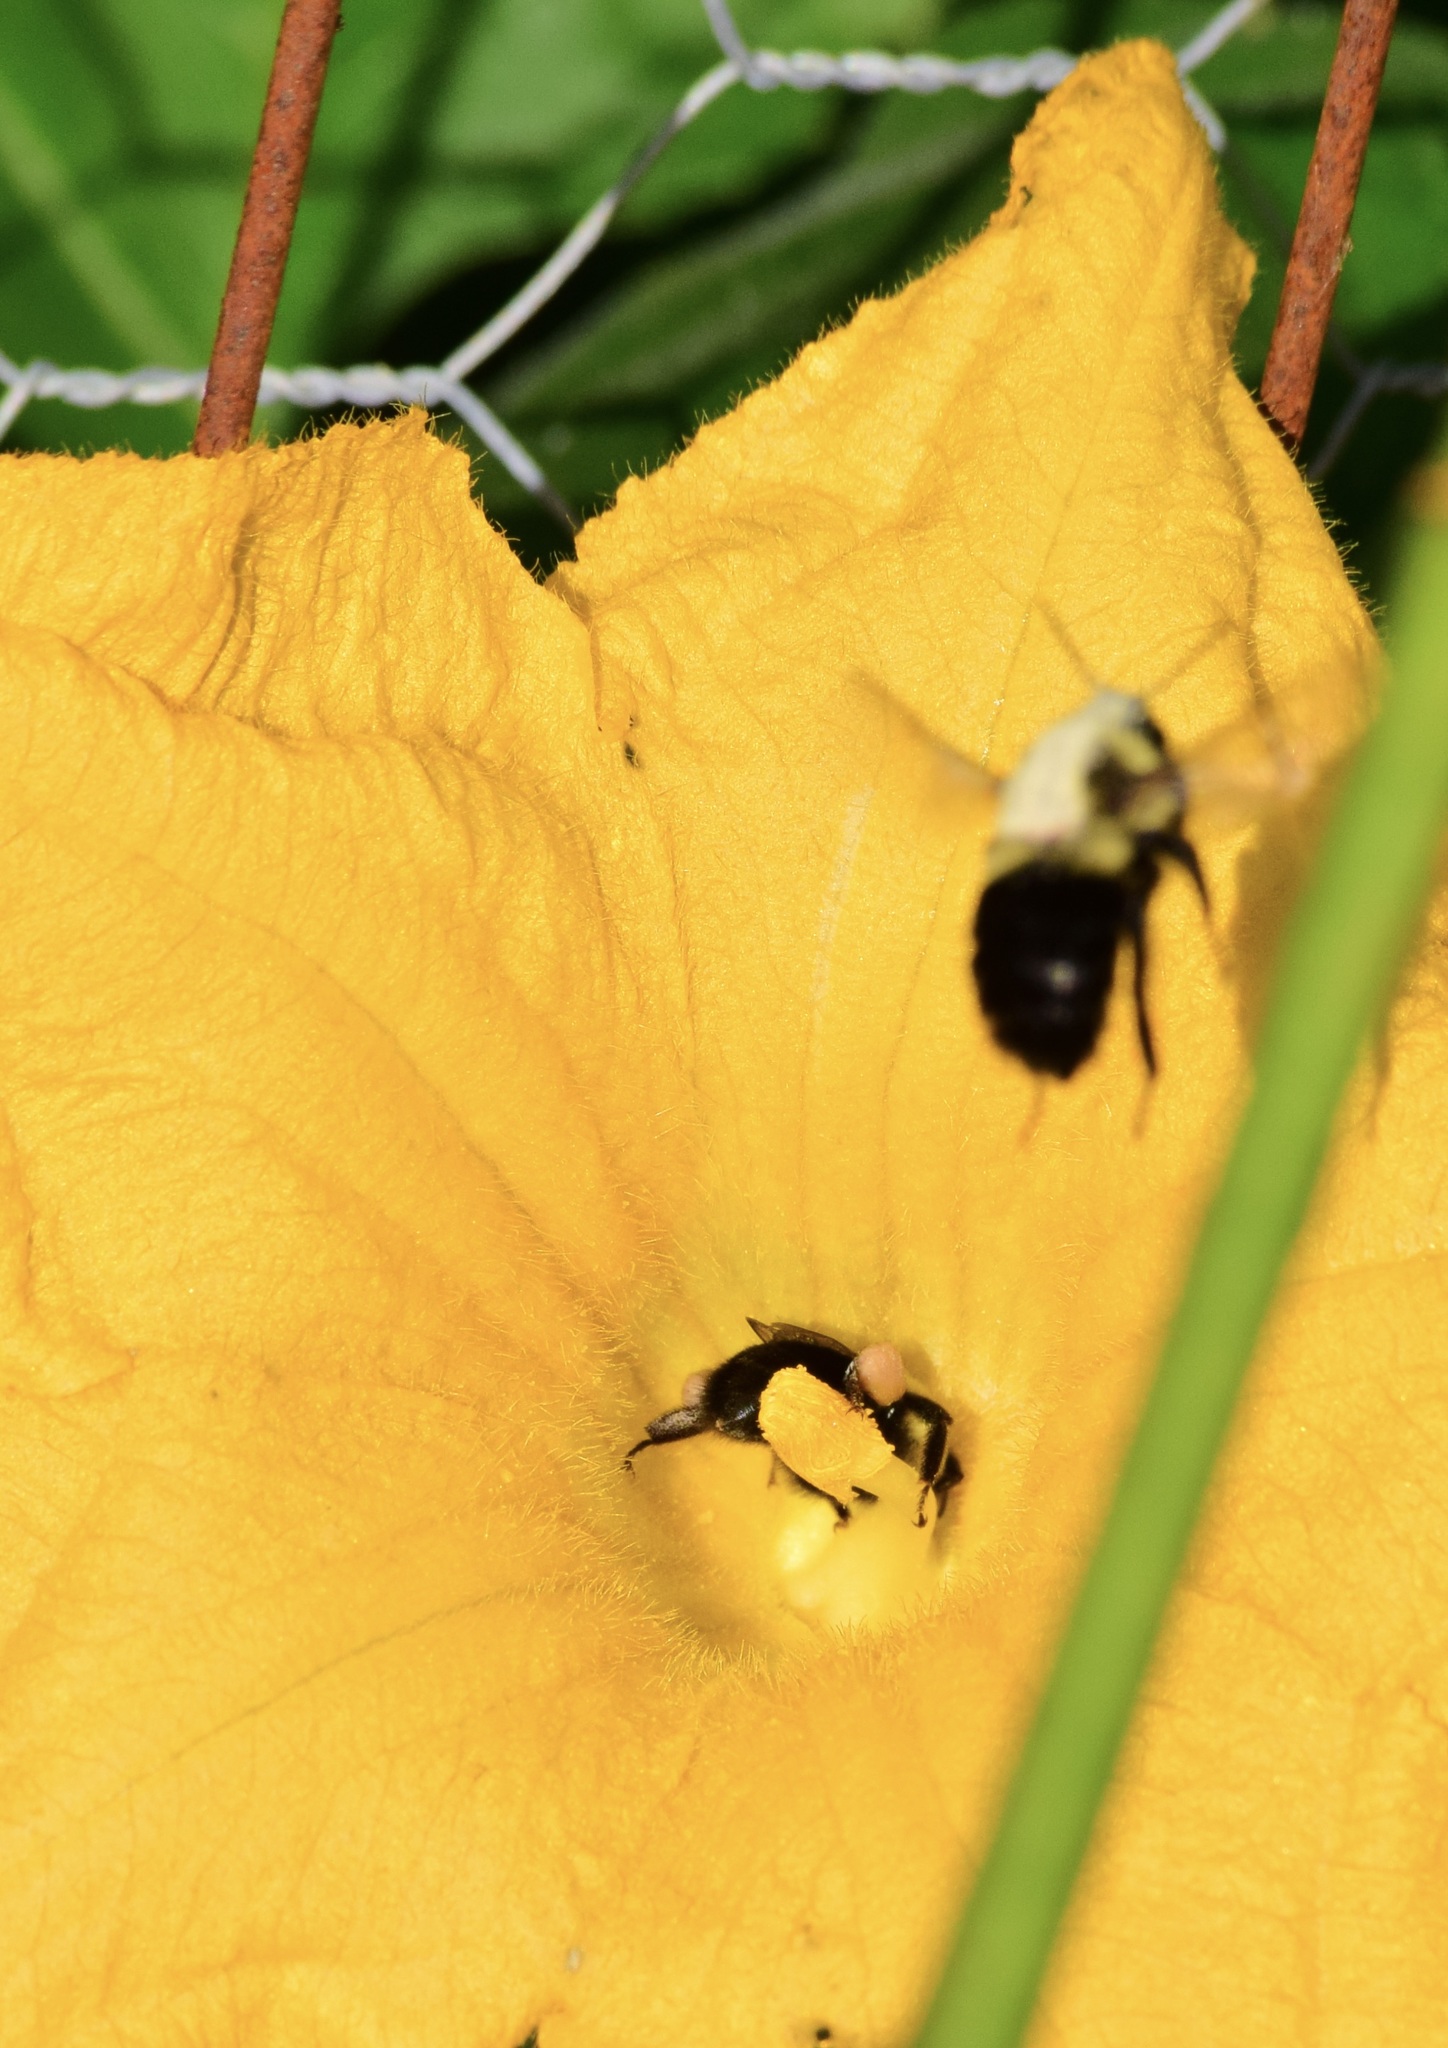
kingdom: Animalia
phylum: Arthropoda
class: Insecta
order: Hymenoptera
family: Apidae
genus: Bombus
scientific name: Bombus impatiens
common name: Common eastern bumble bee
